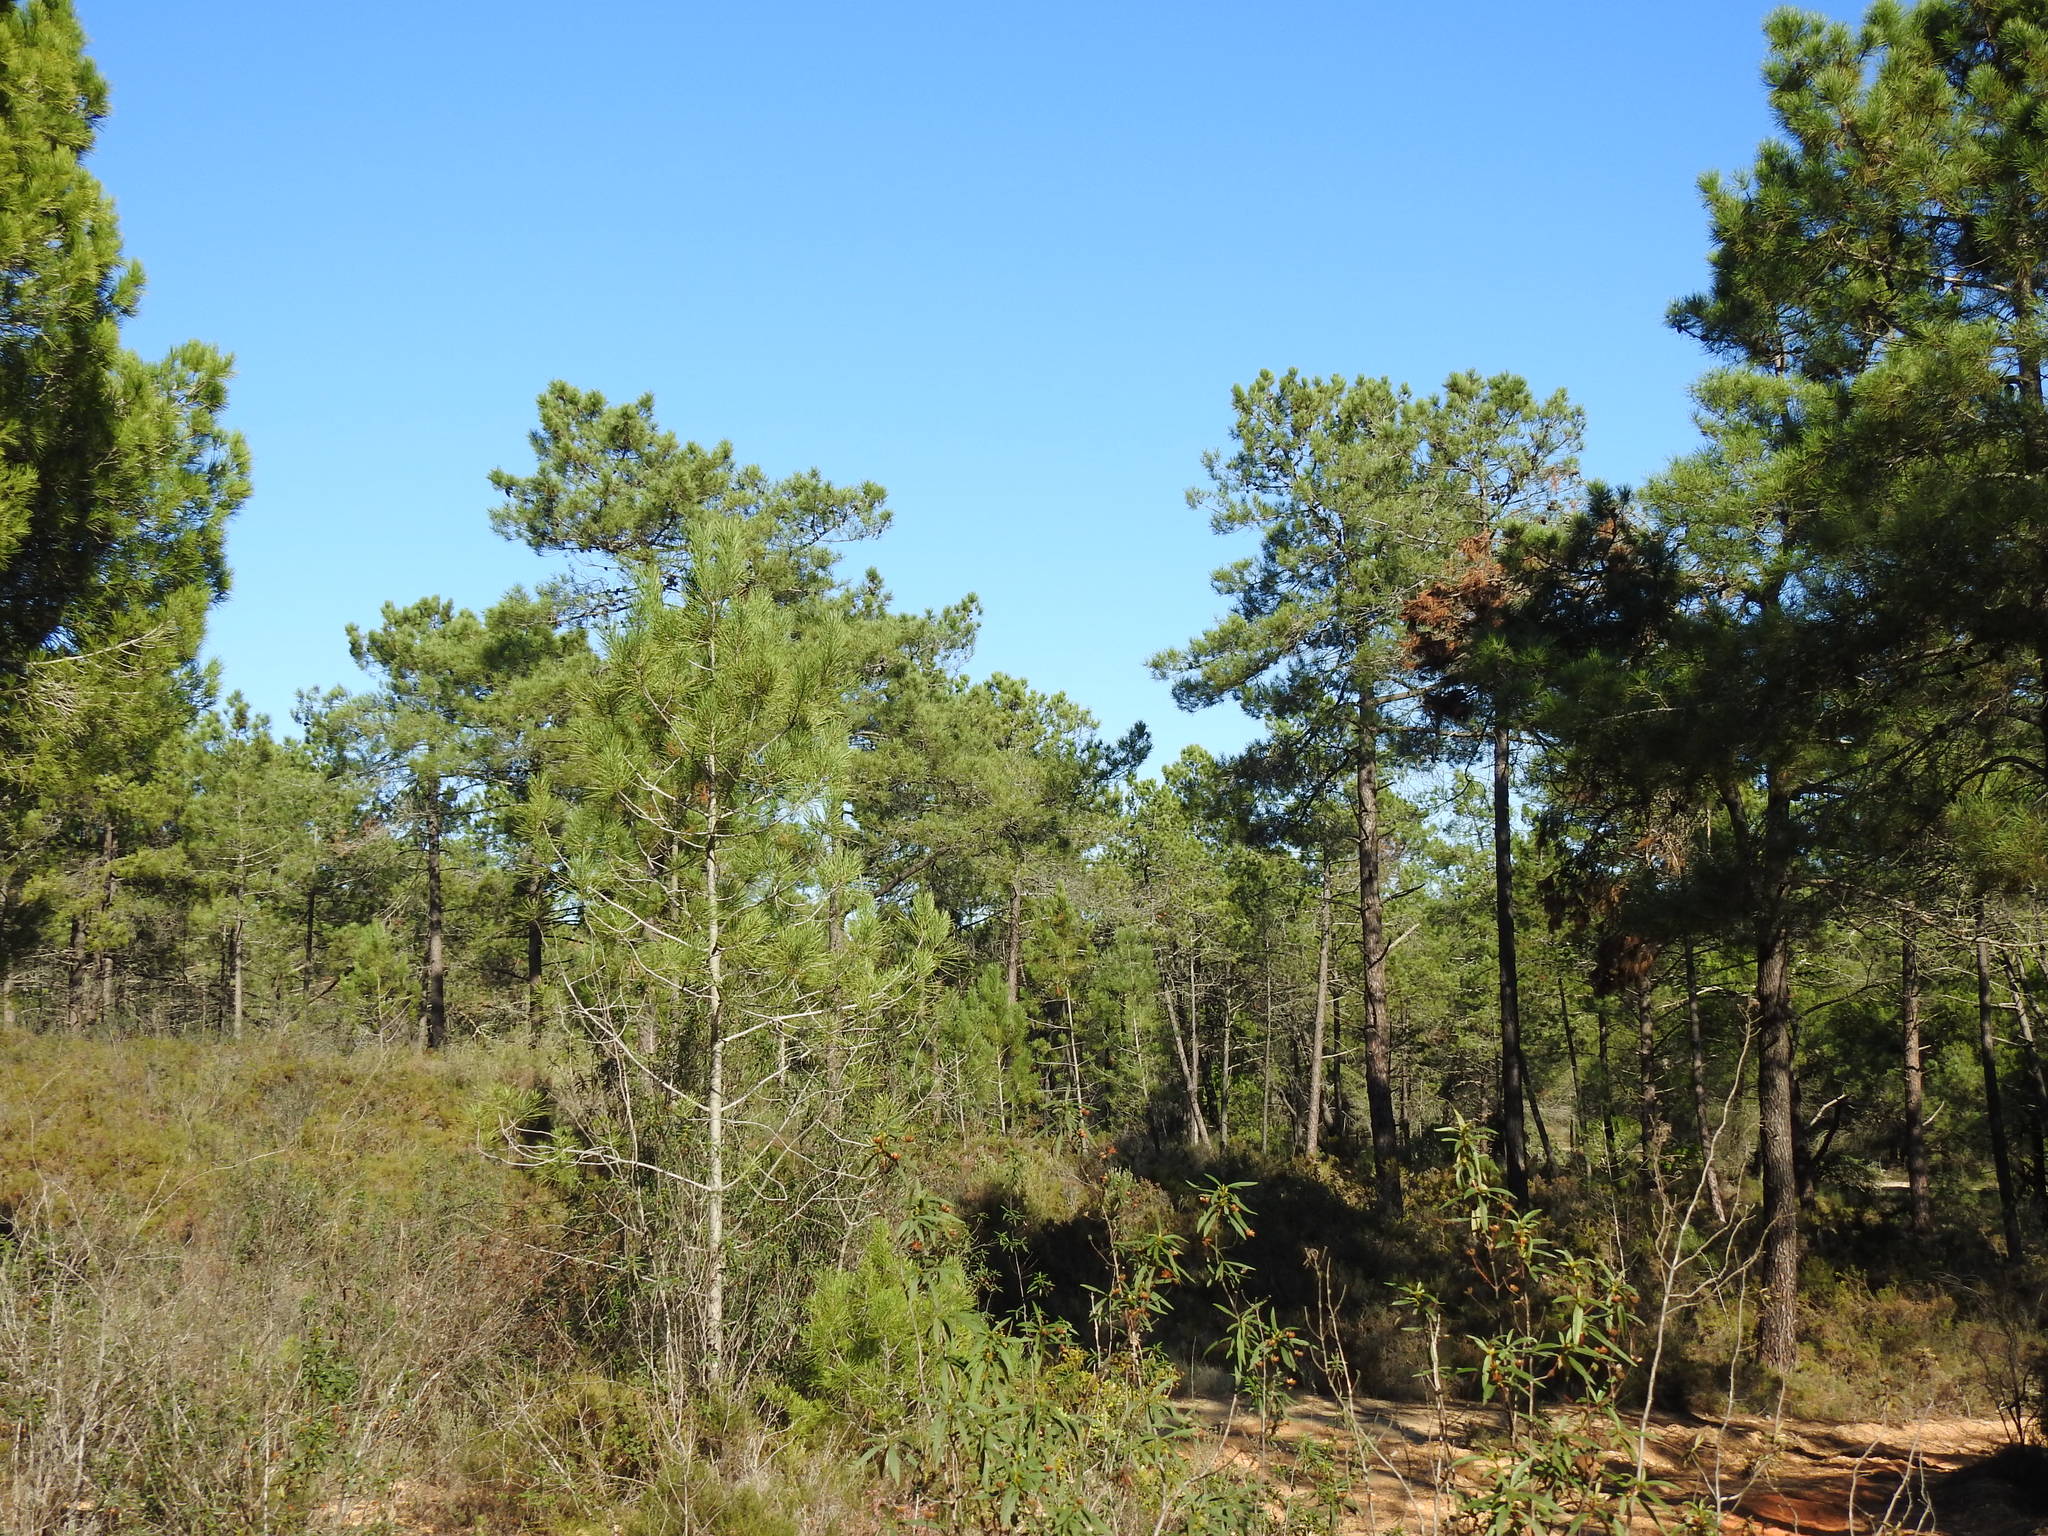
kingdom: Plantae
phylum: Tracheophyta
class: Pinopsida
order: Pinales
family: Pinaceae
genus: Pinus
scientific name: Pinus pinaster
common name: Maritime pine
